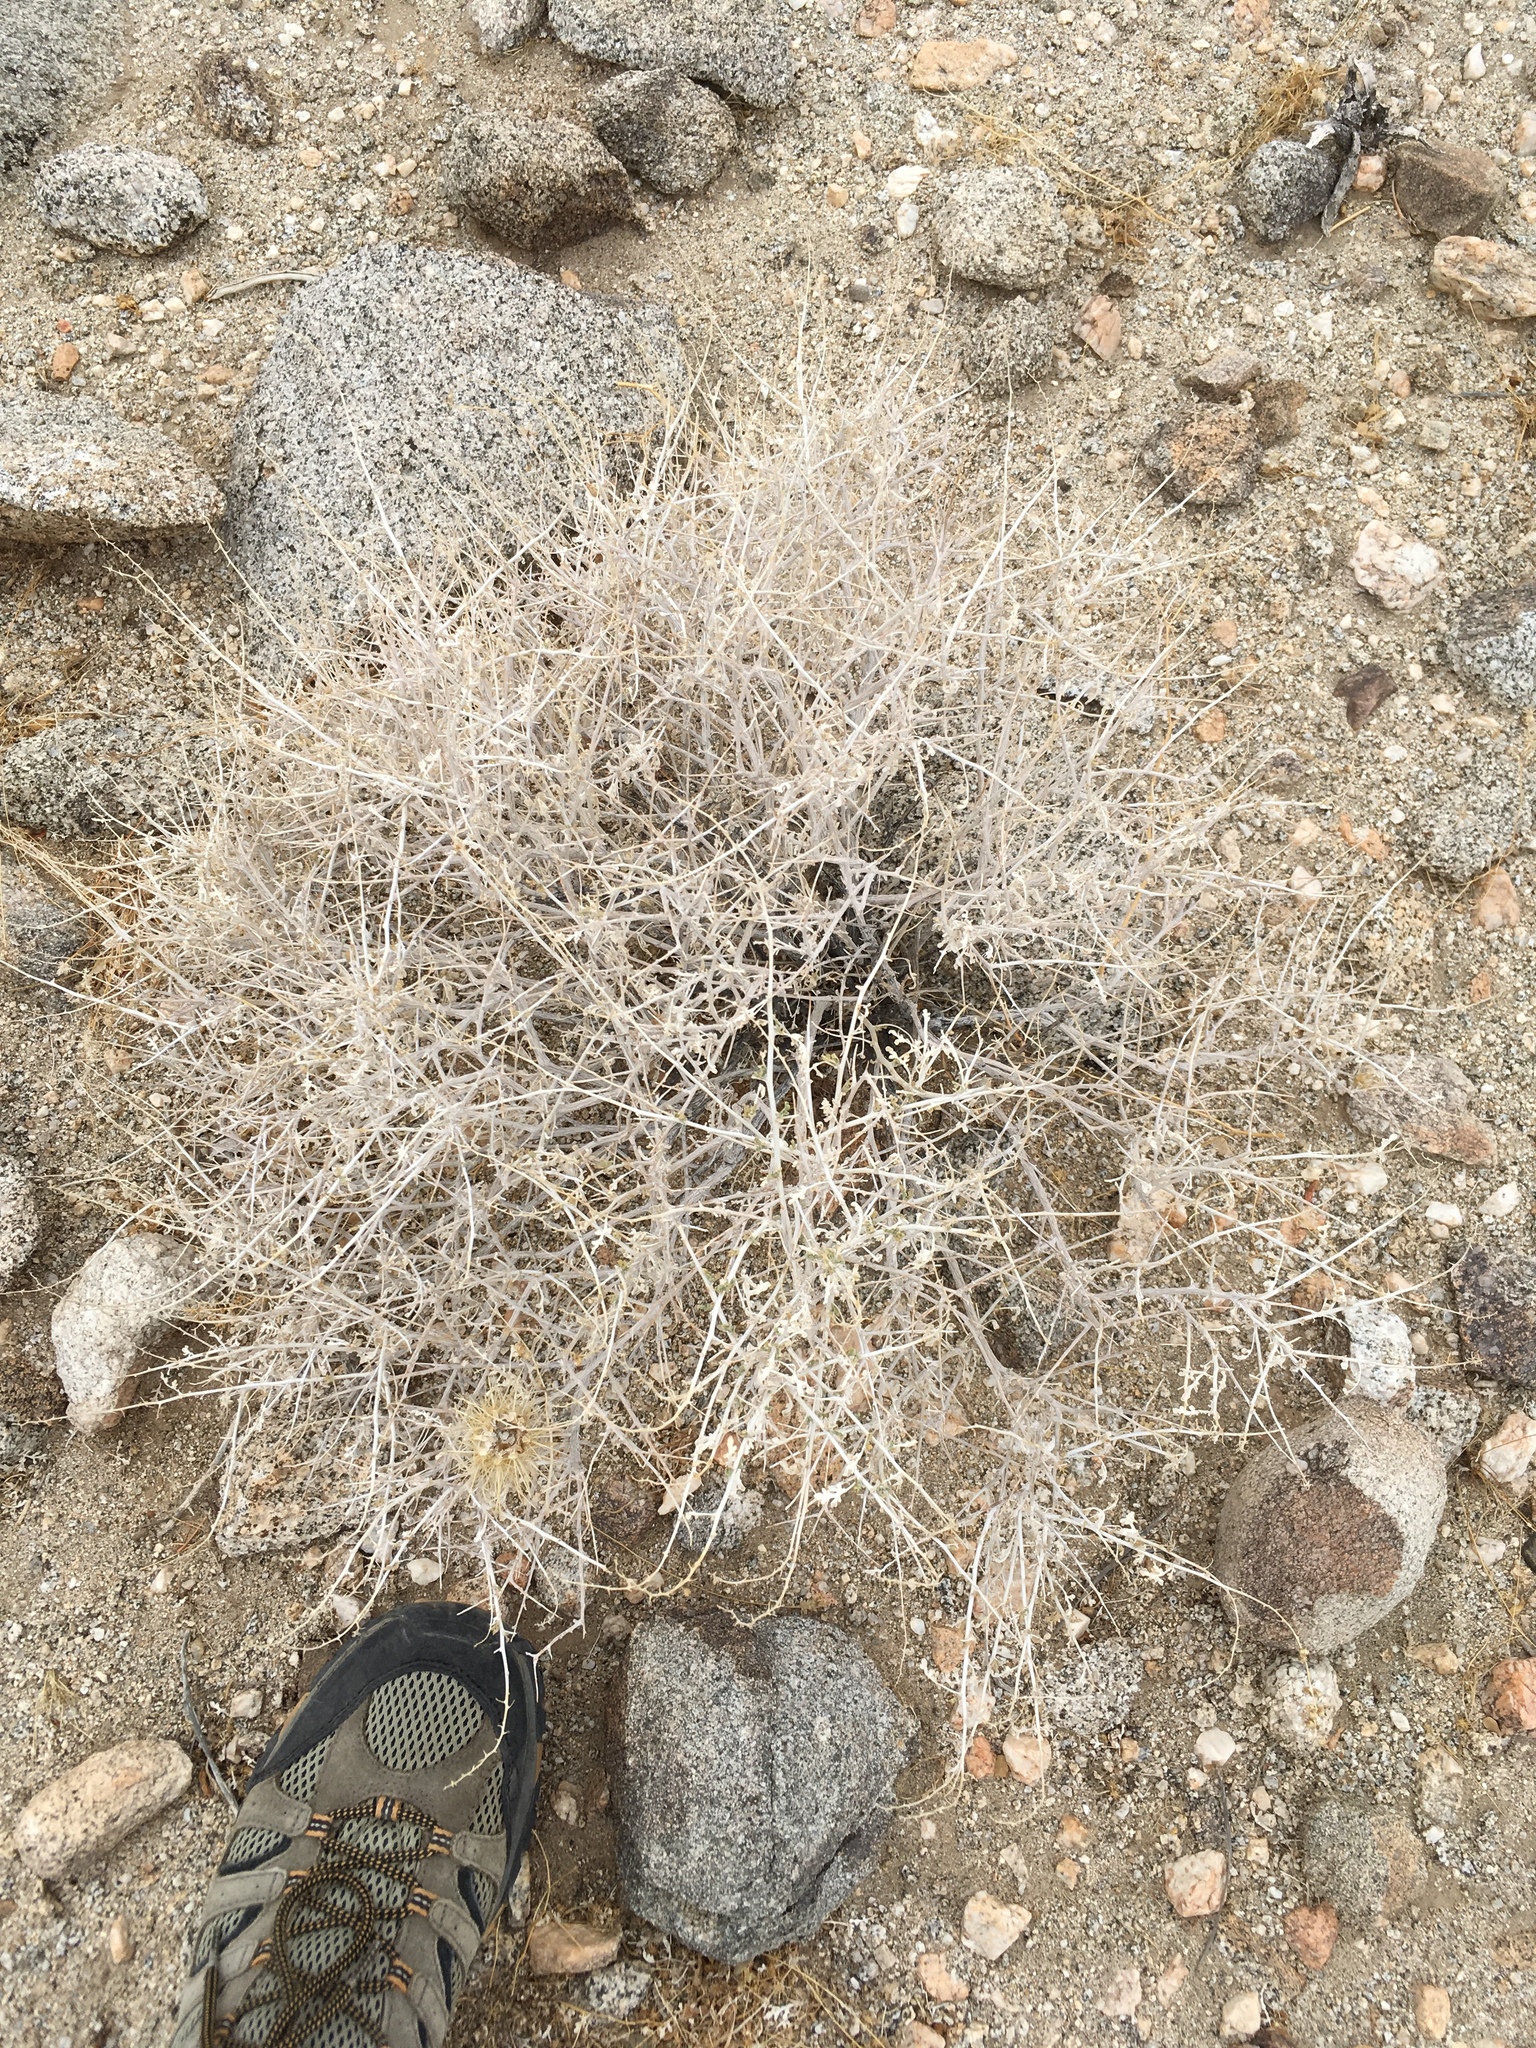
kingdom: Plantae
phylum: Tracheophyta
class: Magnoliopsida
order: Asterales
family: Asteraceae
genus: Ambrosia
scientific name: Ambrosia dumosa
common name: Bur-sage
